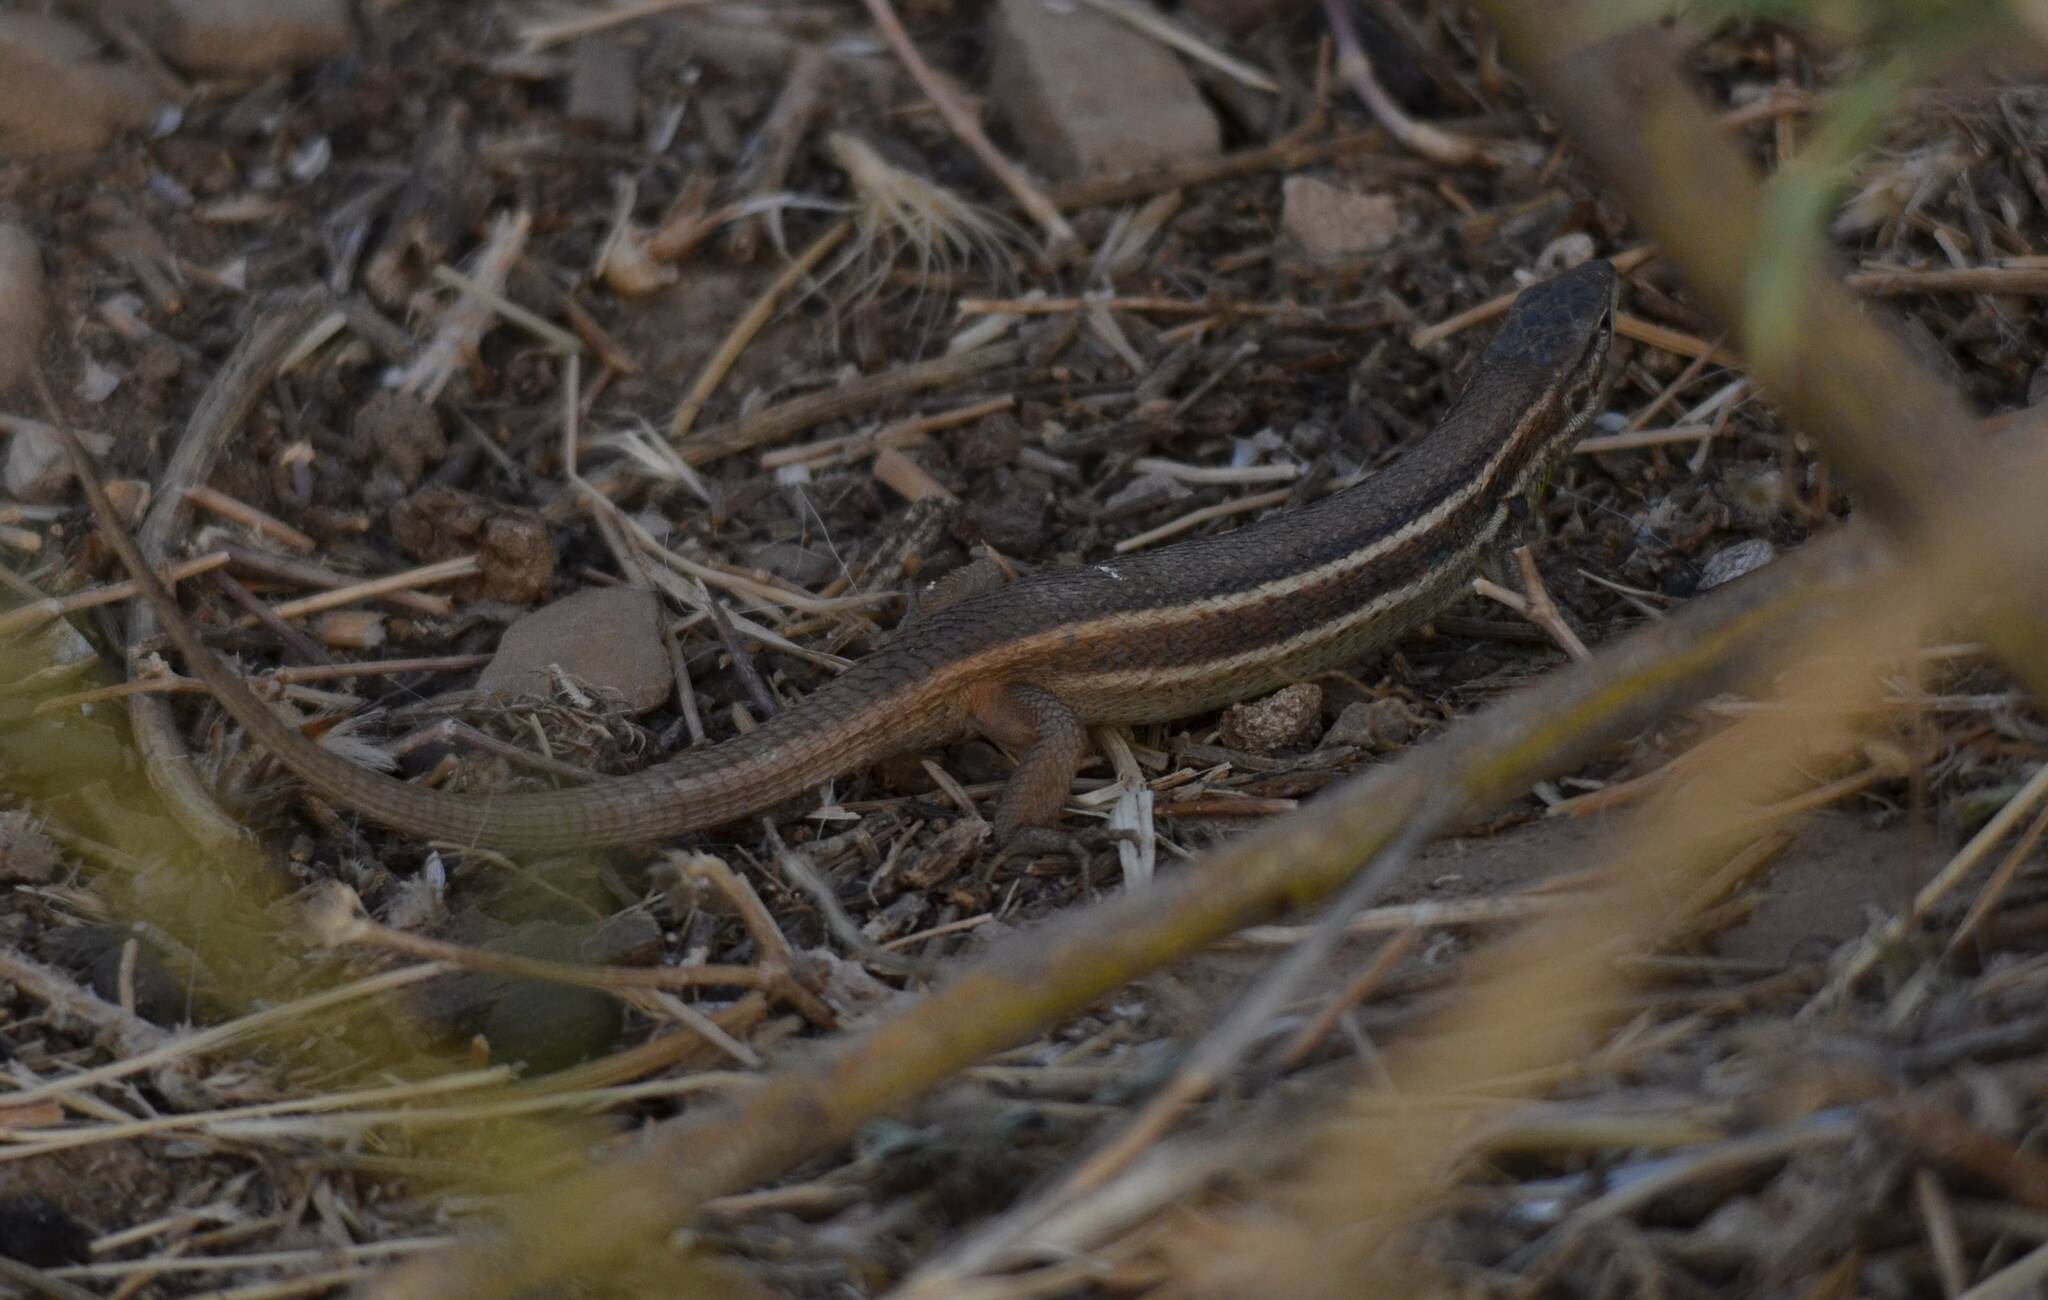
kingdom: Animalia
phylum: Chordata
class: Squamata
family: Lacertidae
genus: Psammodromus
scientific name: Psammodromus algirus
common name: Algerian psammodromus
